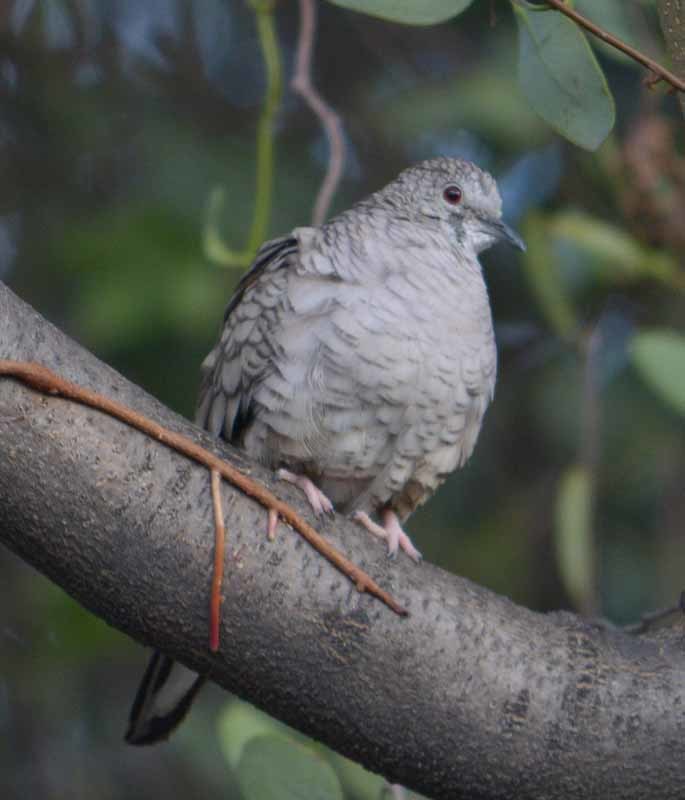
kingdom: Animalia
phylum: Chordata
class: Aves
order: Columbiformes
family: Columbidae
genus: Columbina
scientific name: Columbina inca
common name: Inca dove
